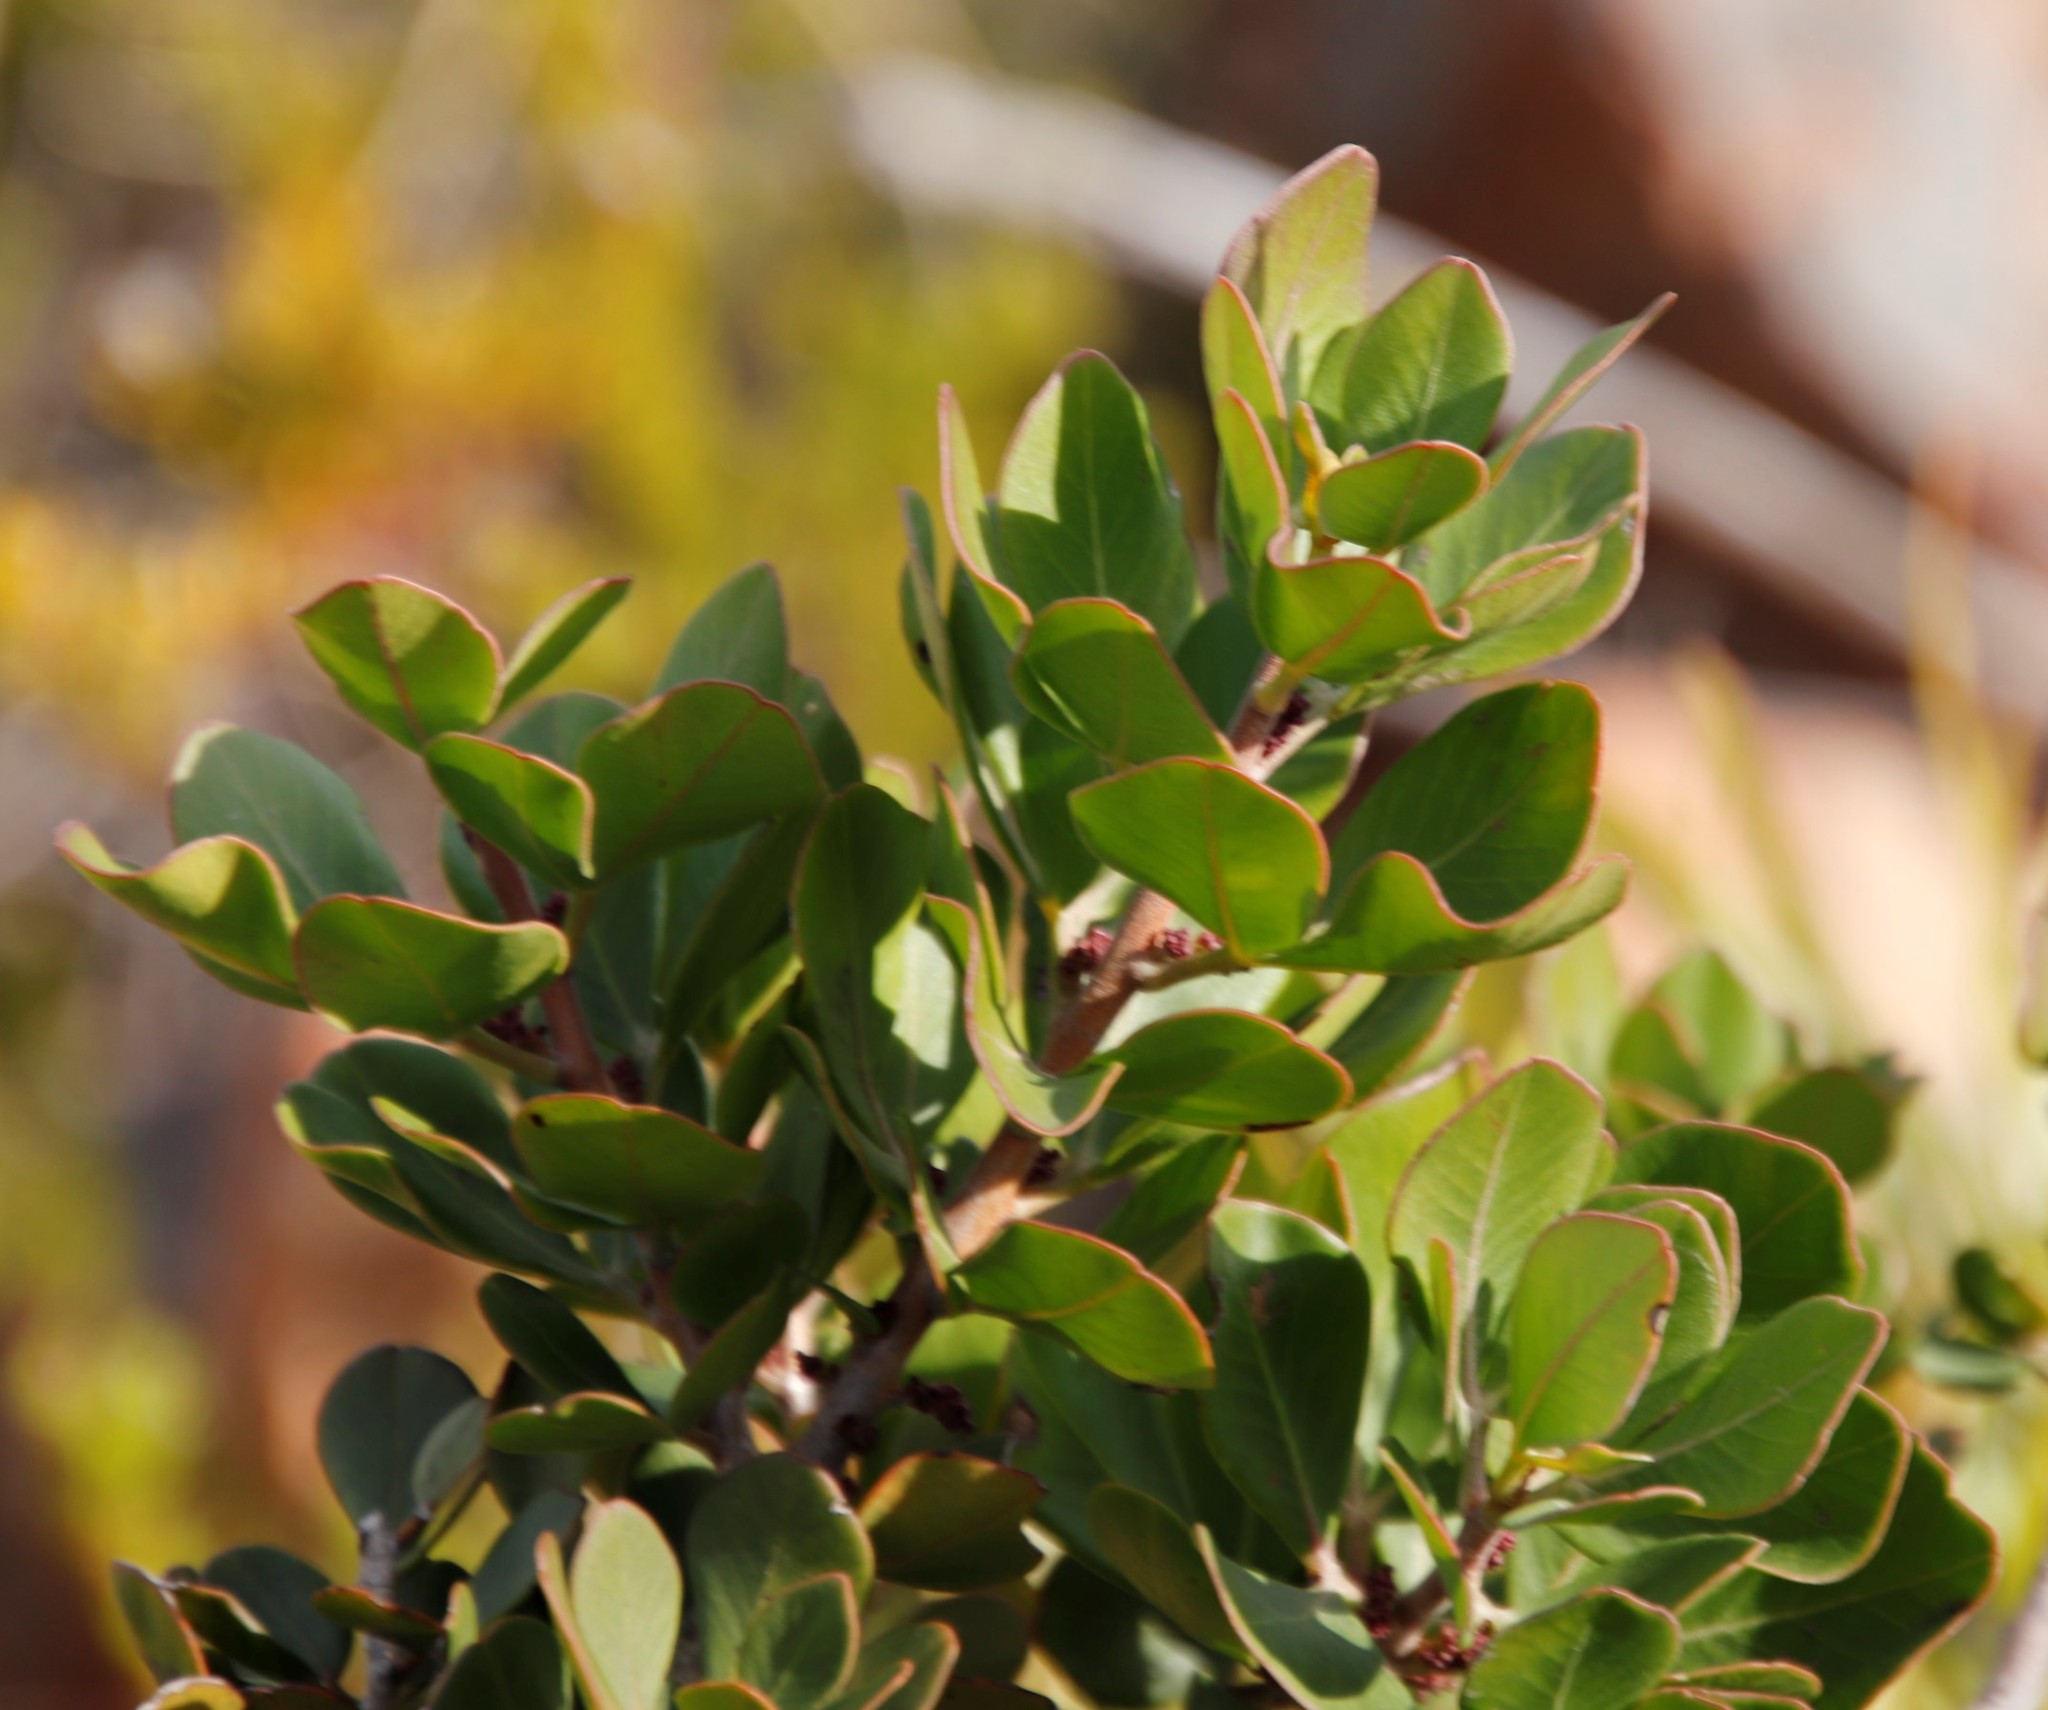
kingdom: Plantae
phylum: Tracheophyta
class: Magnoliopsida
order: Sapindales
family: Anacardiaceae
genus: Searsia
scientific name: Searsia scytophylla
